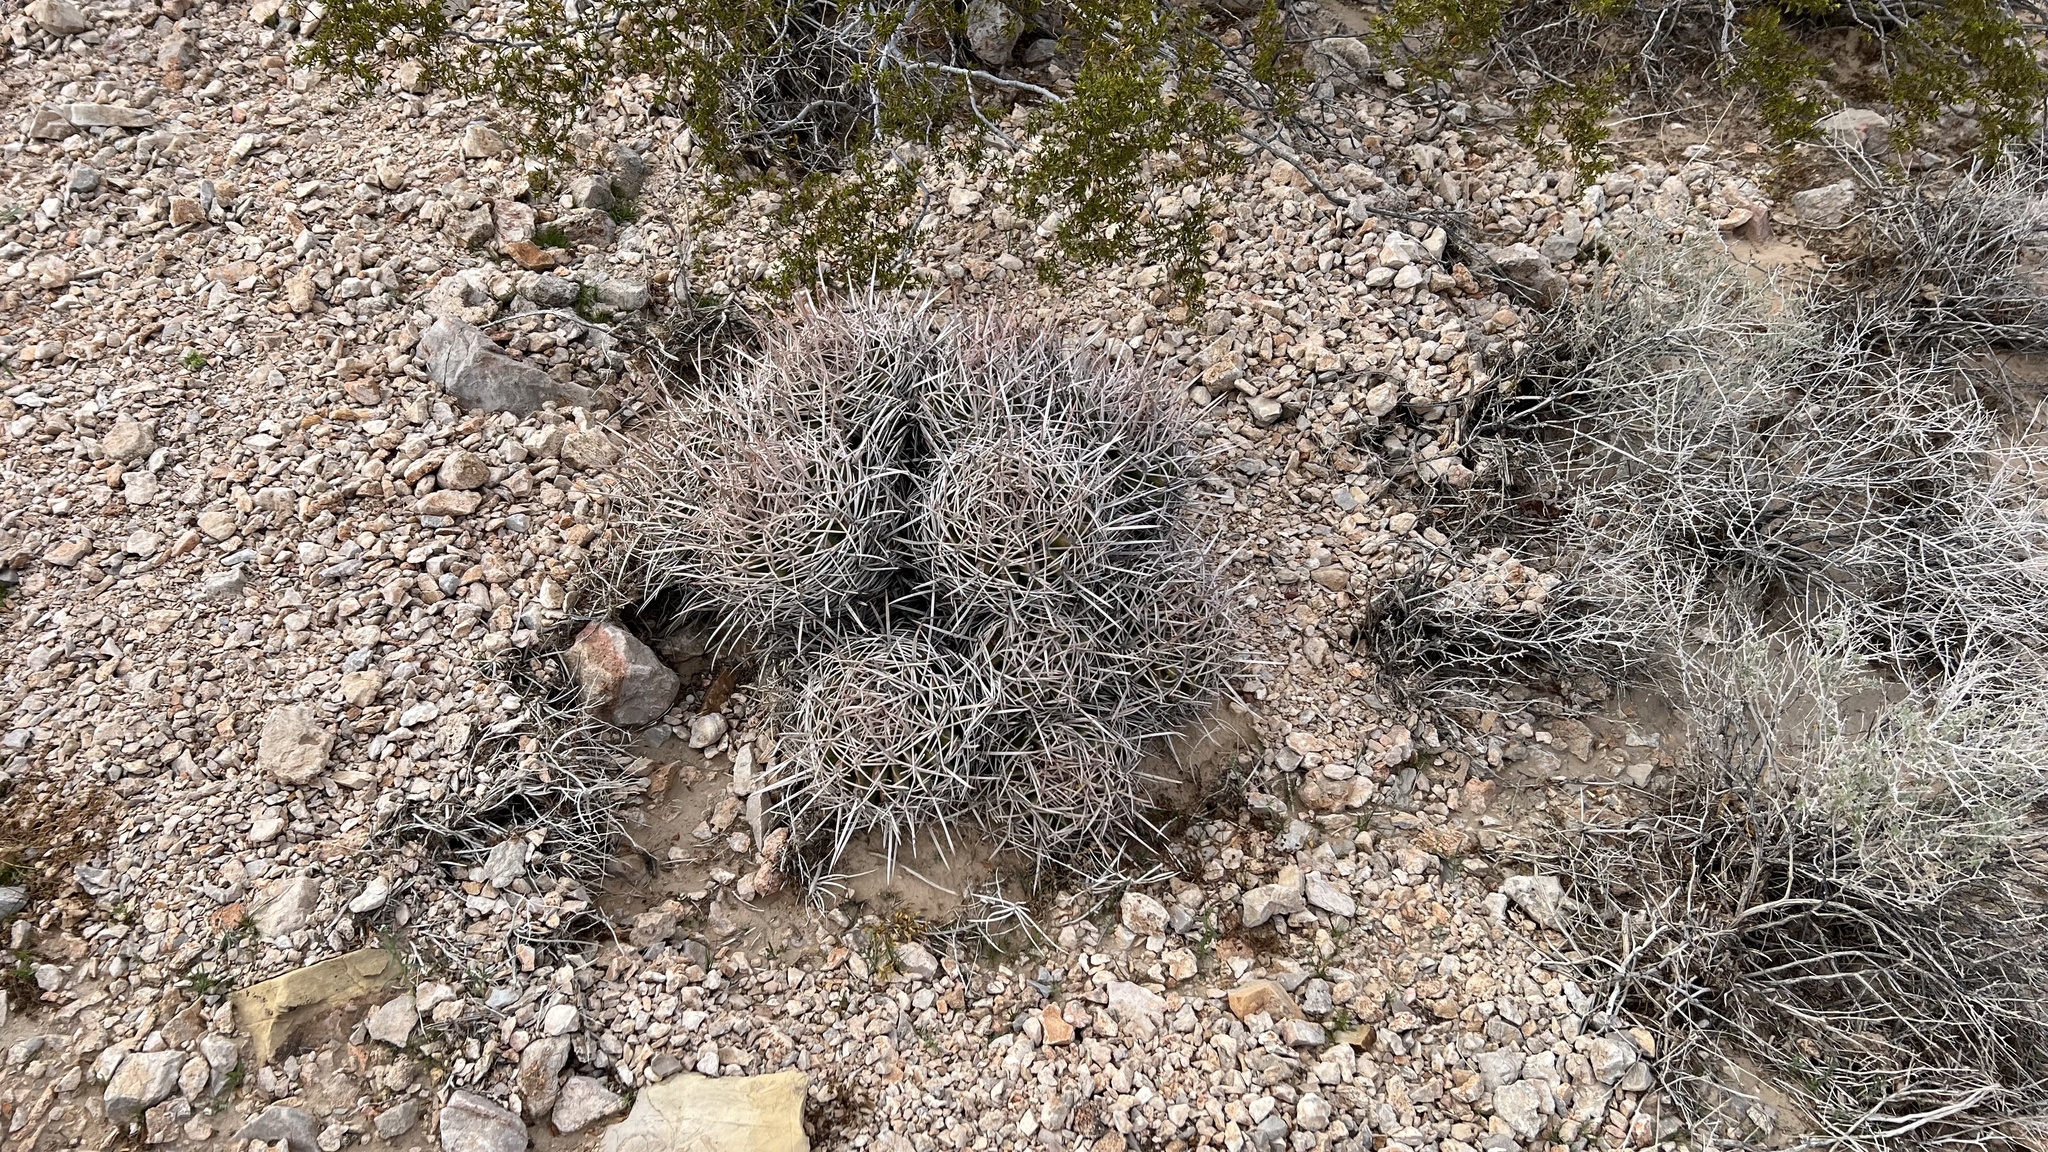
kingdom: Plantae
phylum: Tracheophyta
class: Magnoliopsida
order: Caryophyllales
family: Cactaceae
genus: Echinocactus
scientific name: Echinocactus polycephalus
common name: Cottontop cactus
